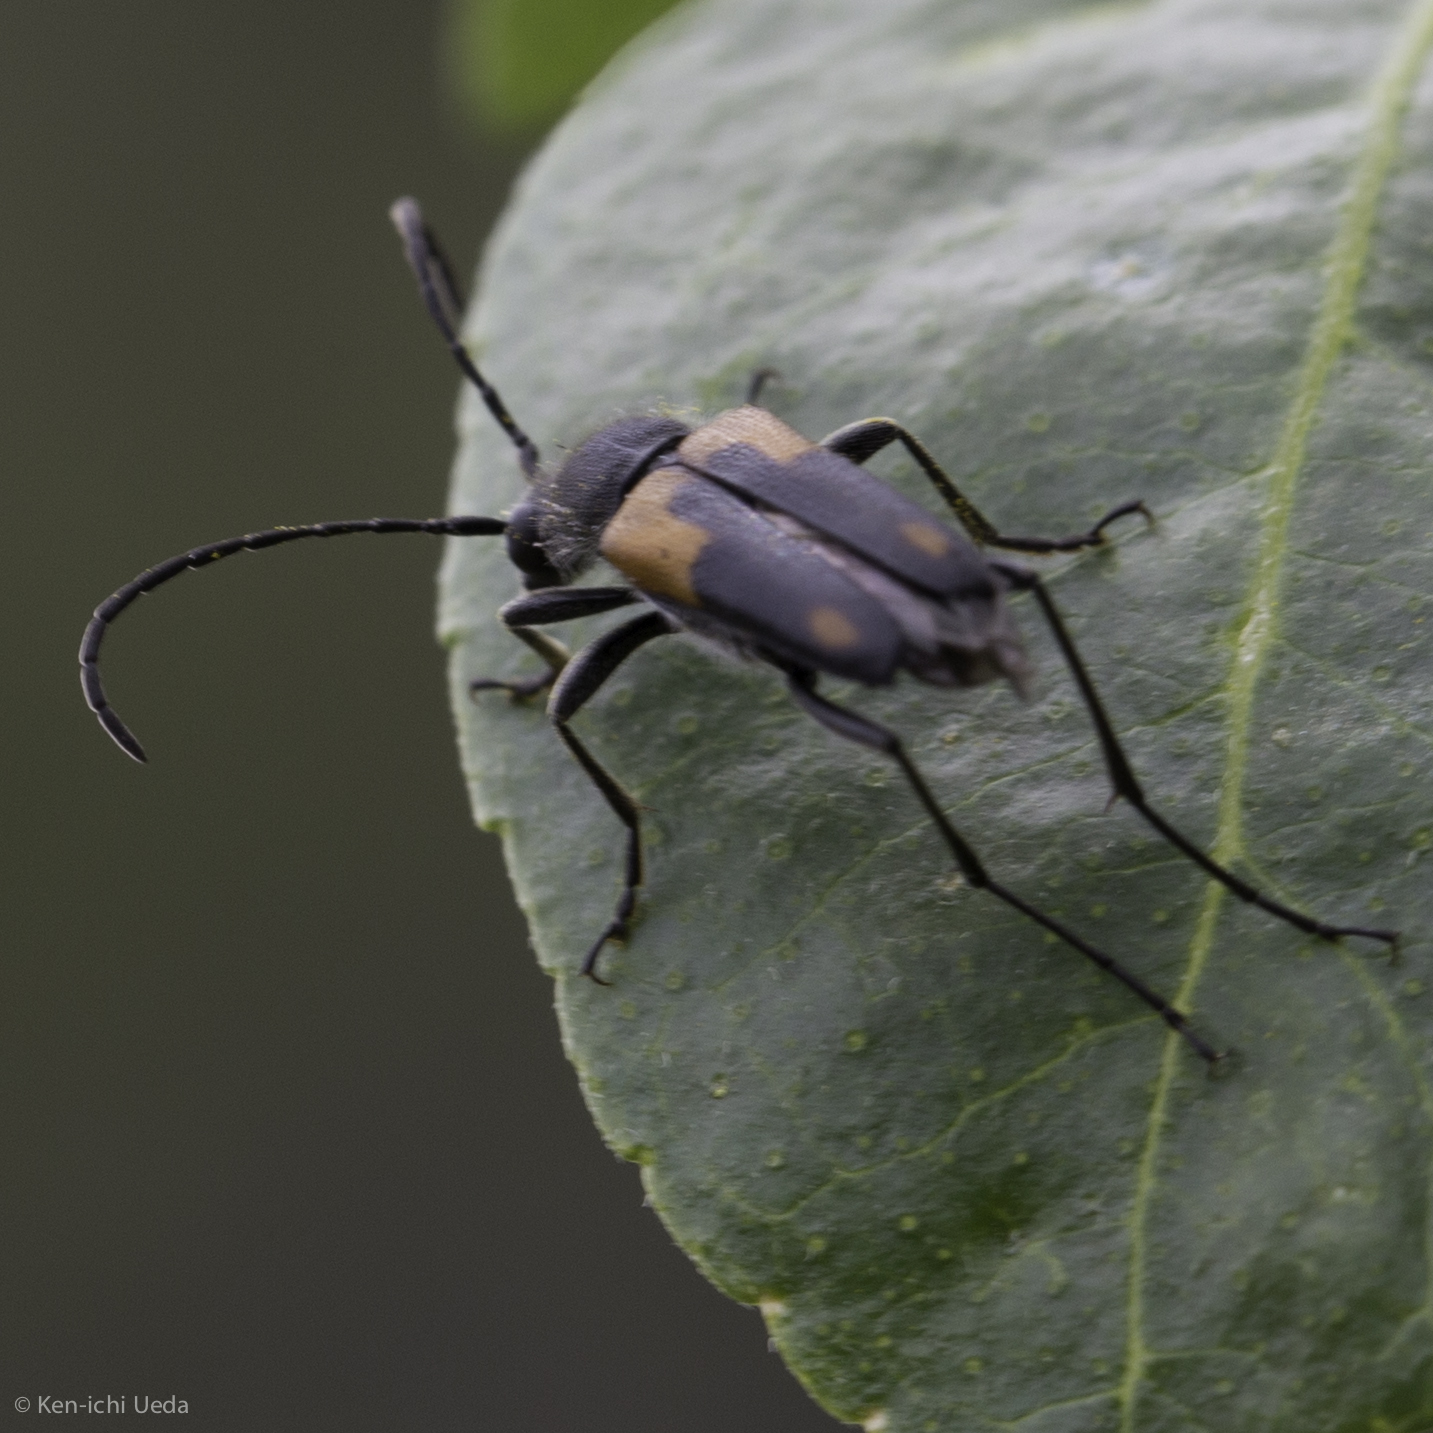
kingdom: Animalia
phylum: Arthropoda
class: Insecta
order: Coleoptera
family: Cerambycidae
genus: Anastrangalia
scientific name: Anastrangalia laetifica
